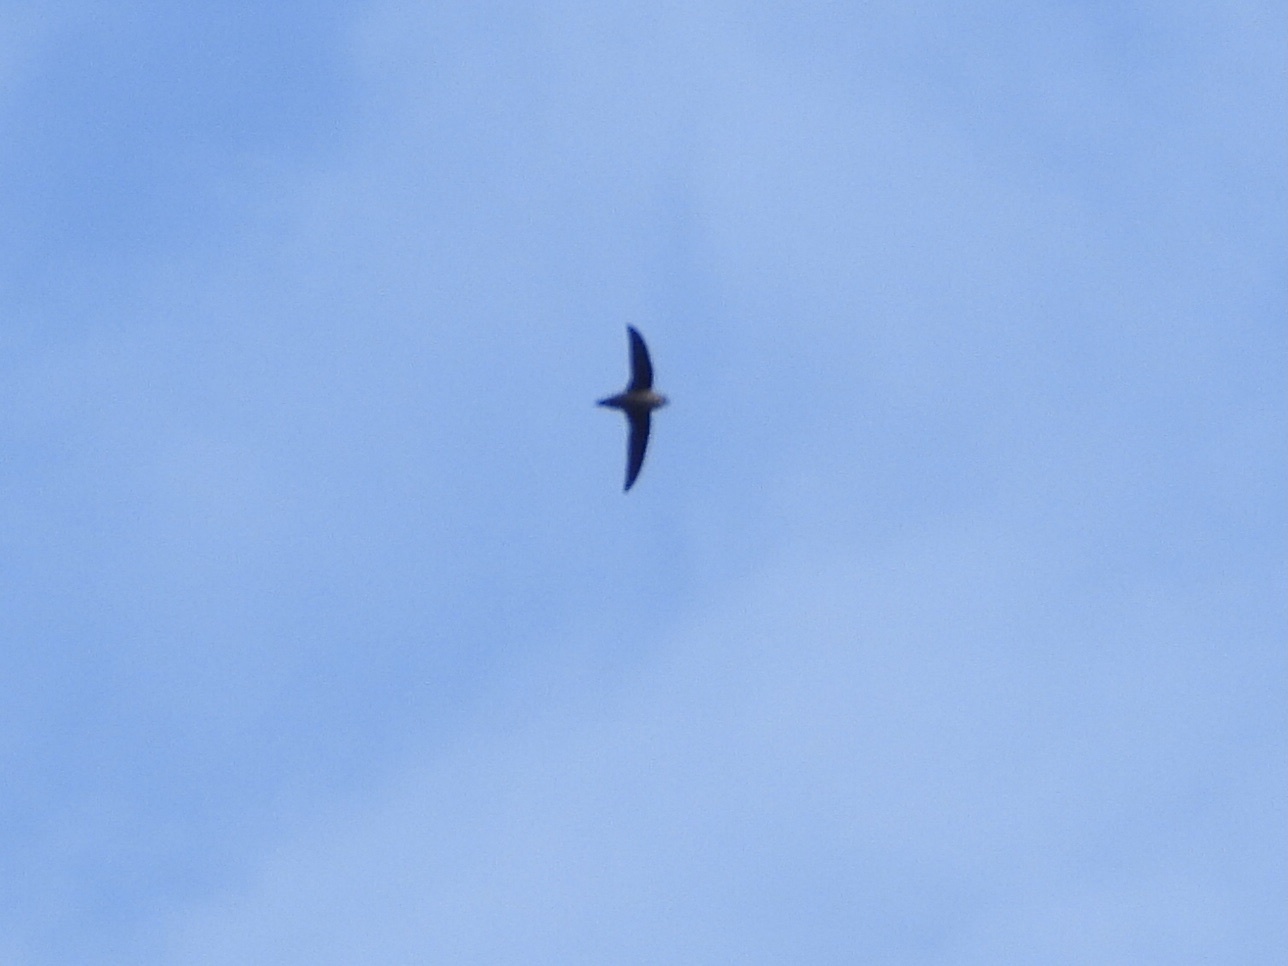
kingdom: Animalia
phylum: Chordata
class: Aves
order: Apodiformes
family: Apodidae
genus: Chaetura
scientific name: Chaetura vauxi
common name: Vaux's swift
